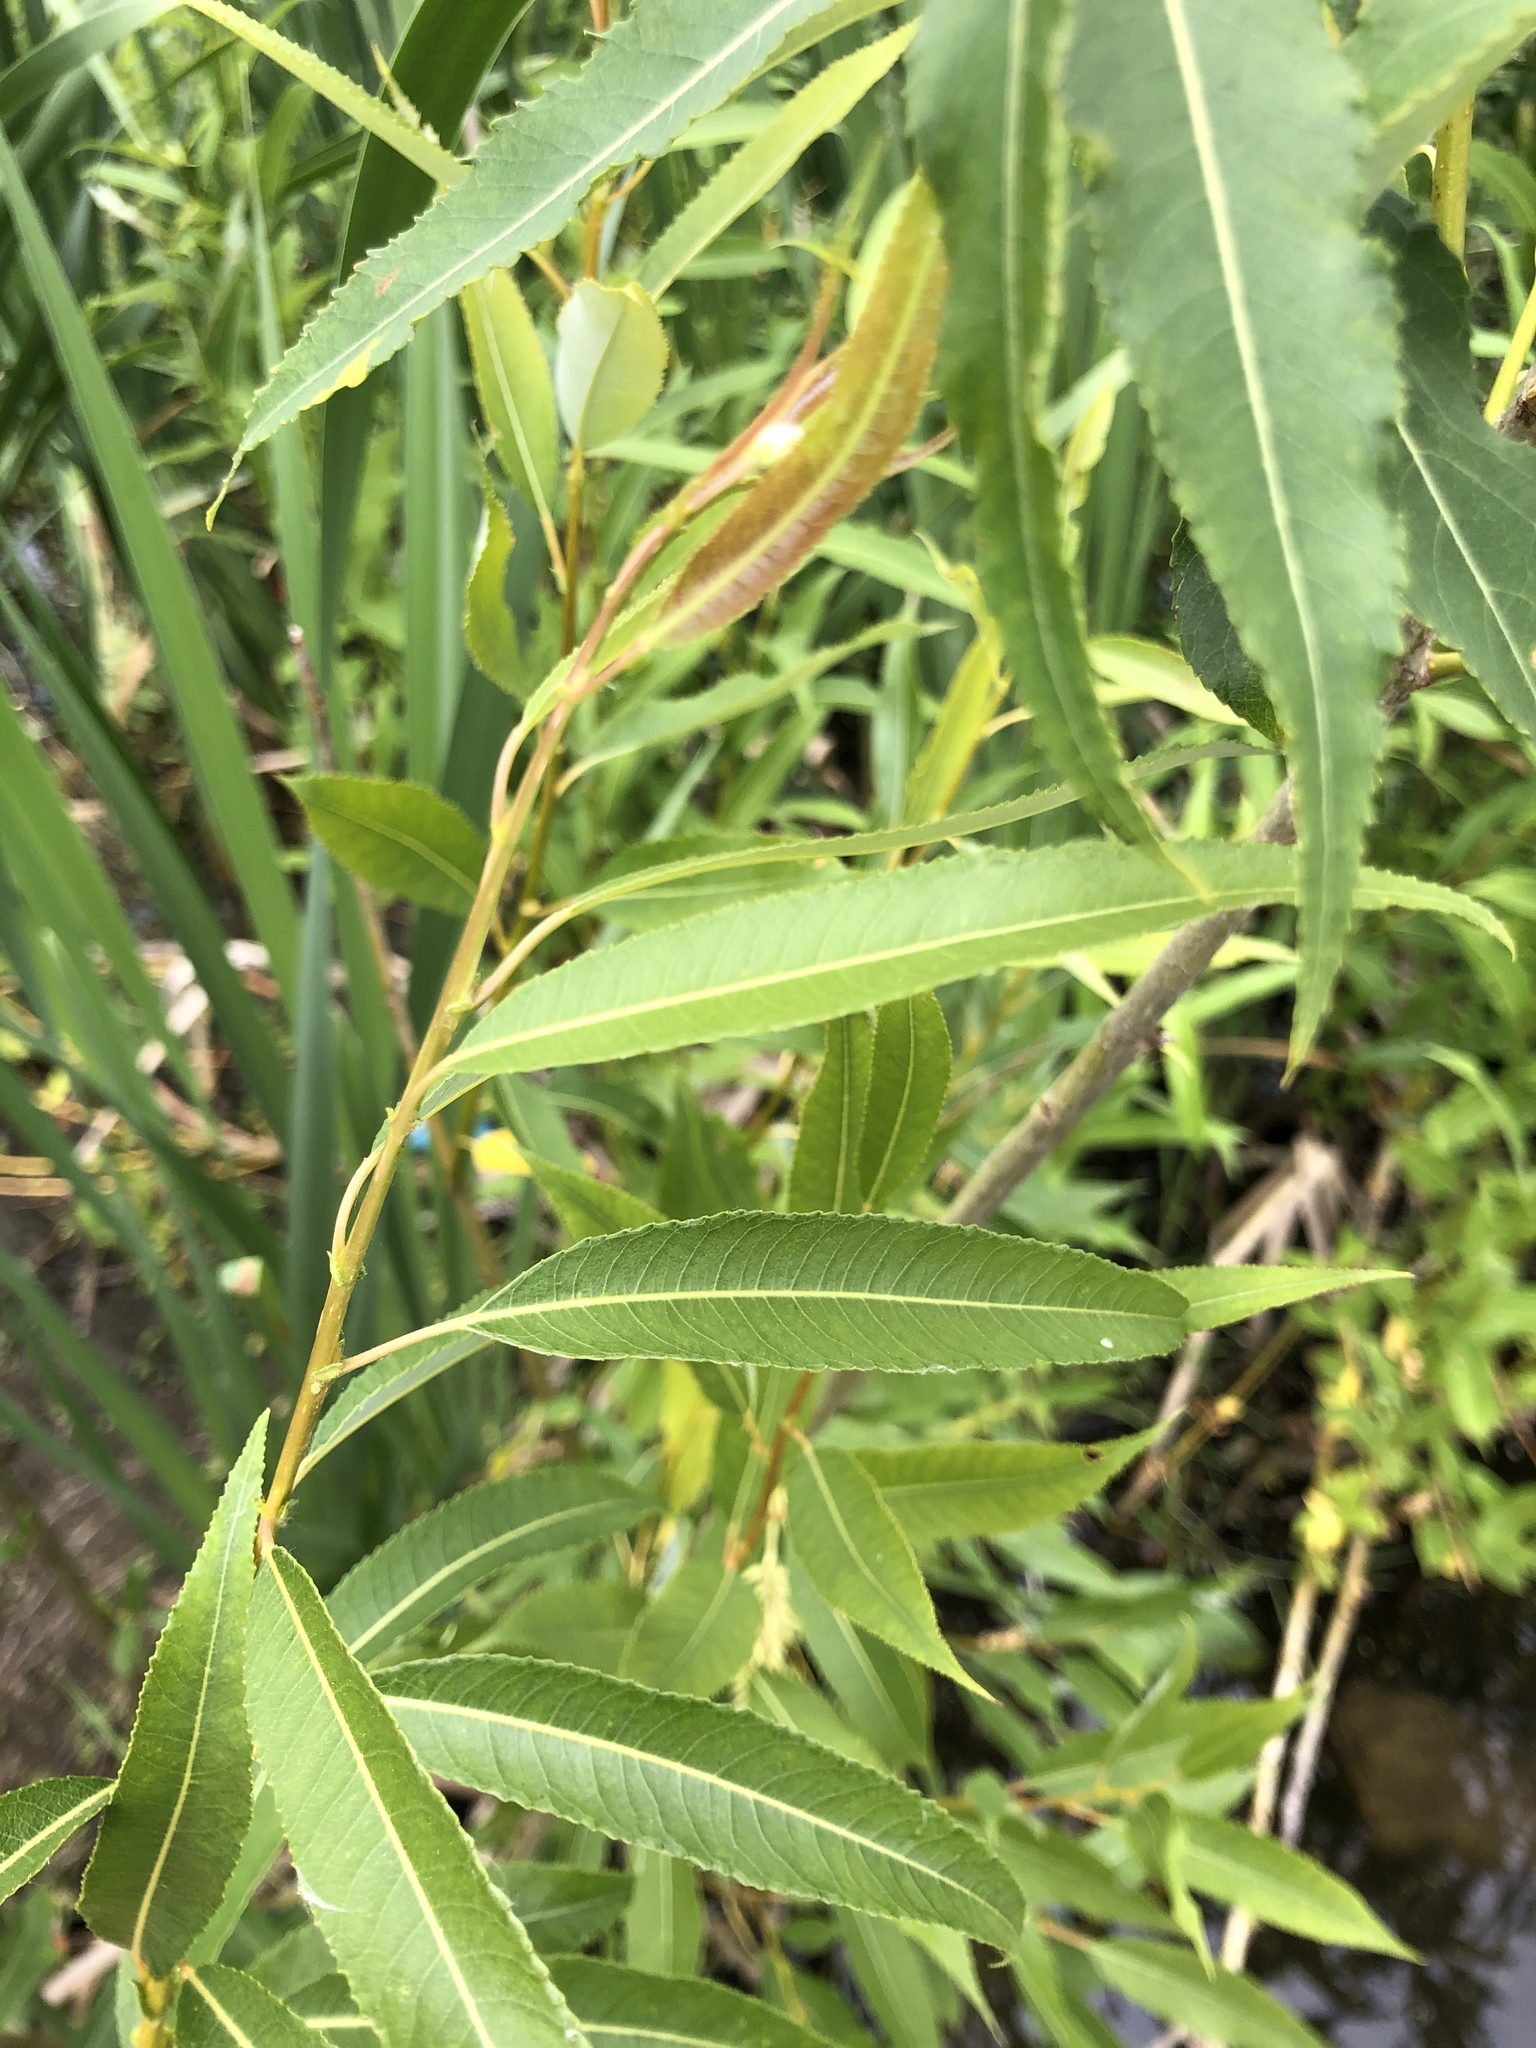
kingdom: Plantae
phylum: Tracheophyta
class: Magnoliopsida
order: Malpighiales
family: Salicaceae
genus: Salix
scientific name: Salix triandra
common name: Almond willow
